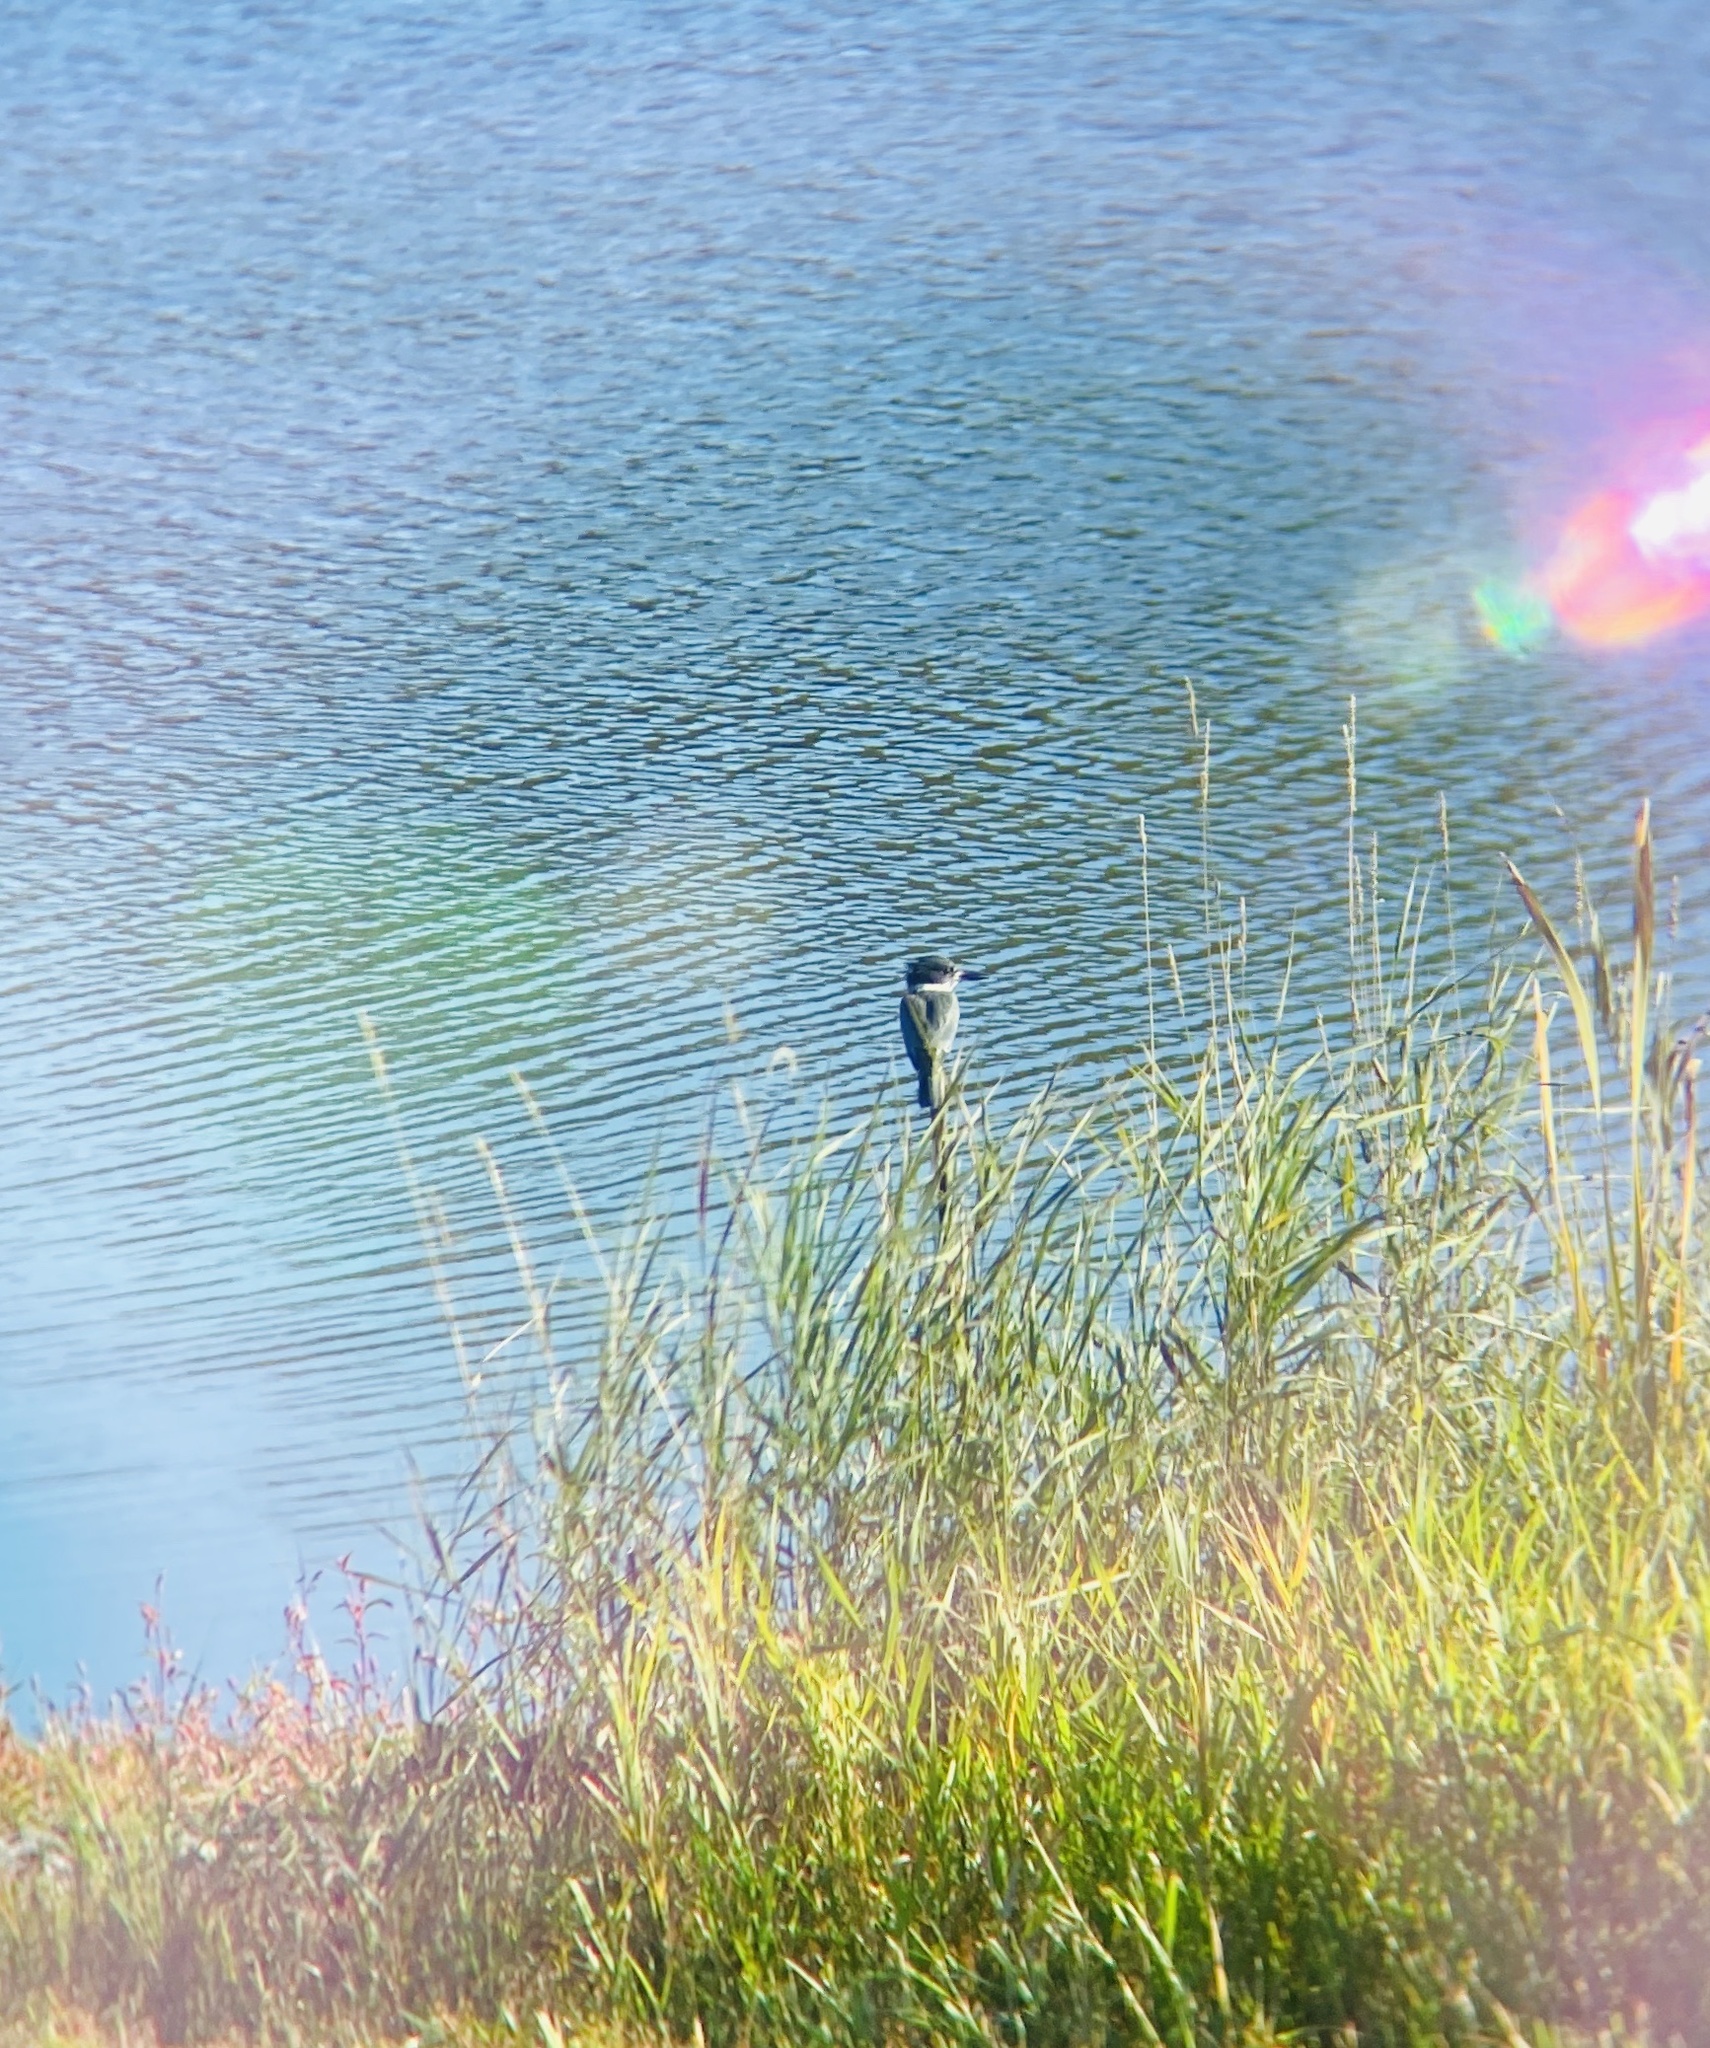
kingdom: Animalia
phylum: Chordata
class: Aves
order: Coraciiformes
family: Alcedinidae
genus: Megaceryle
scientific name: Megaceryle alcyon
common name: Belted kingfisher
